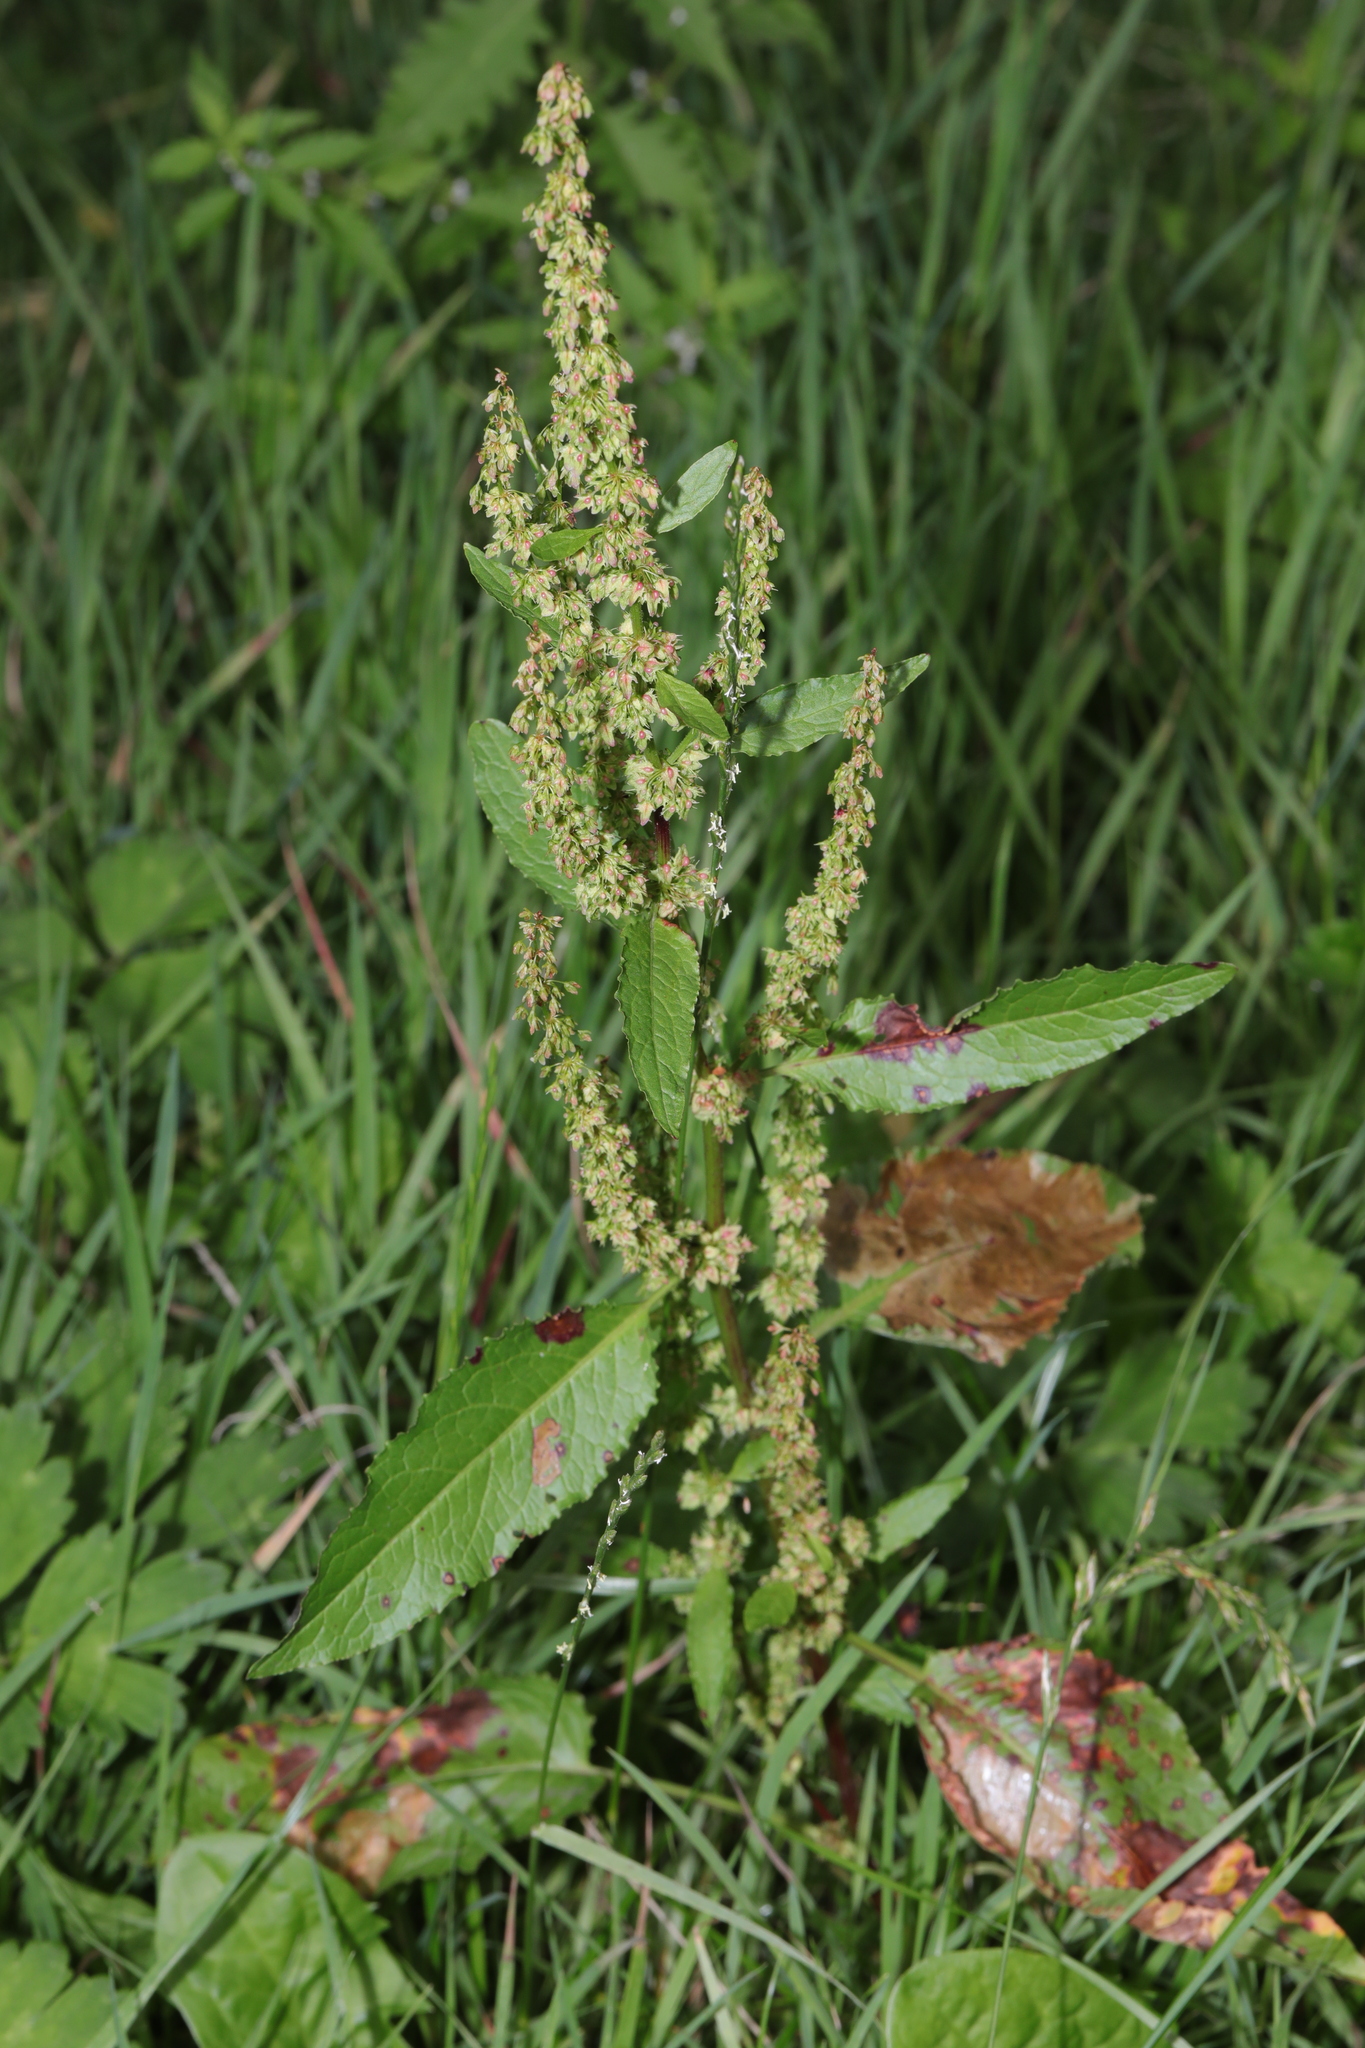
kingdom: Plantae
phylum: Tracheophyta
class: Magnoliopsida
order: Caryophyllales
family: Polygonaceae
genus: Rumex
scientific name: Rumex obtusifolius
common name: Bitter dock
